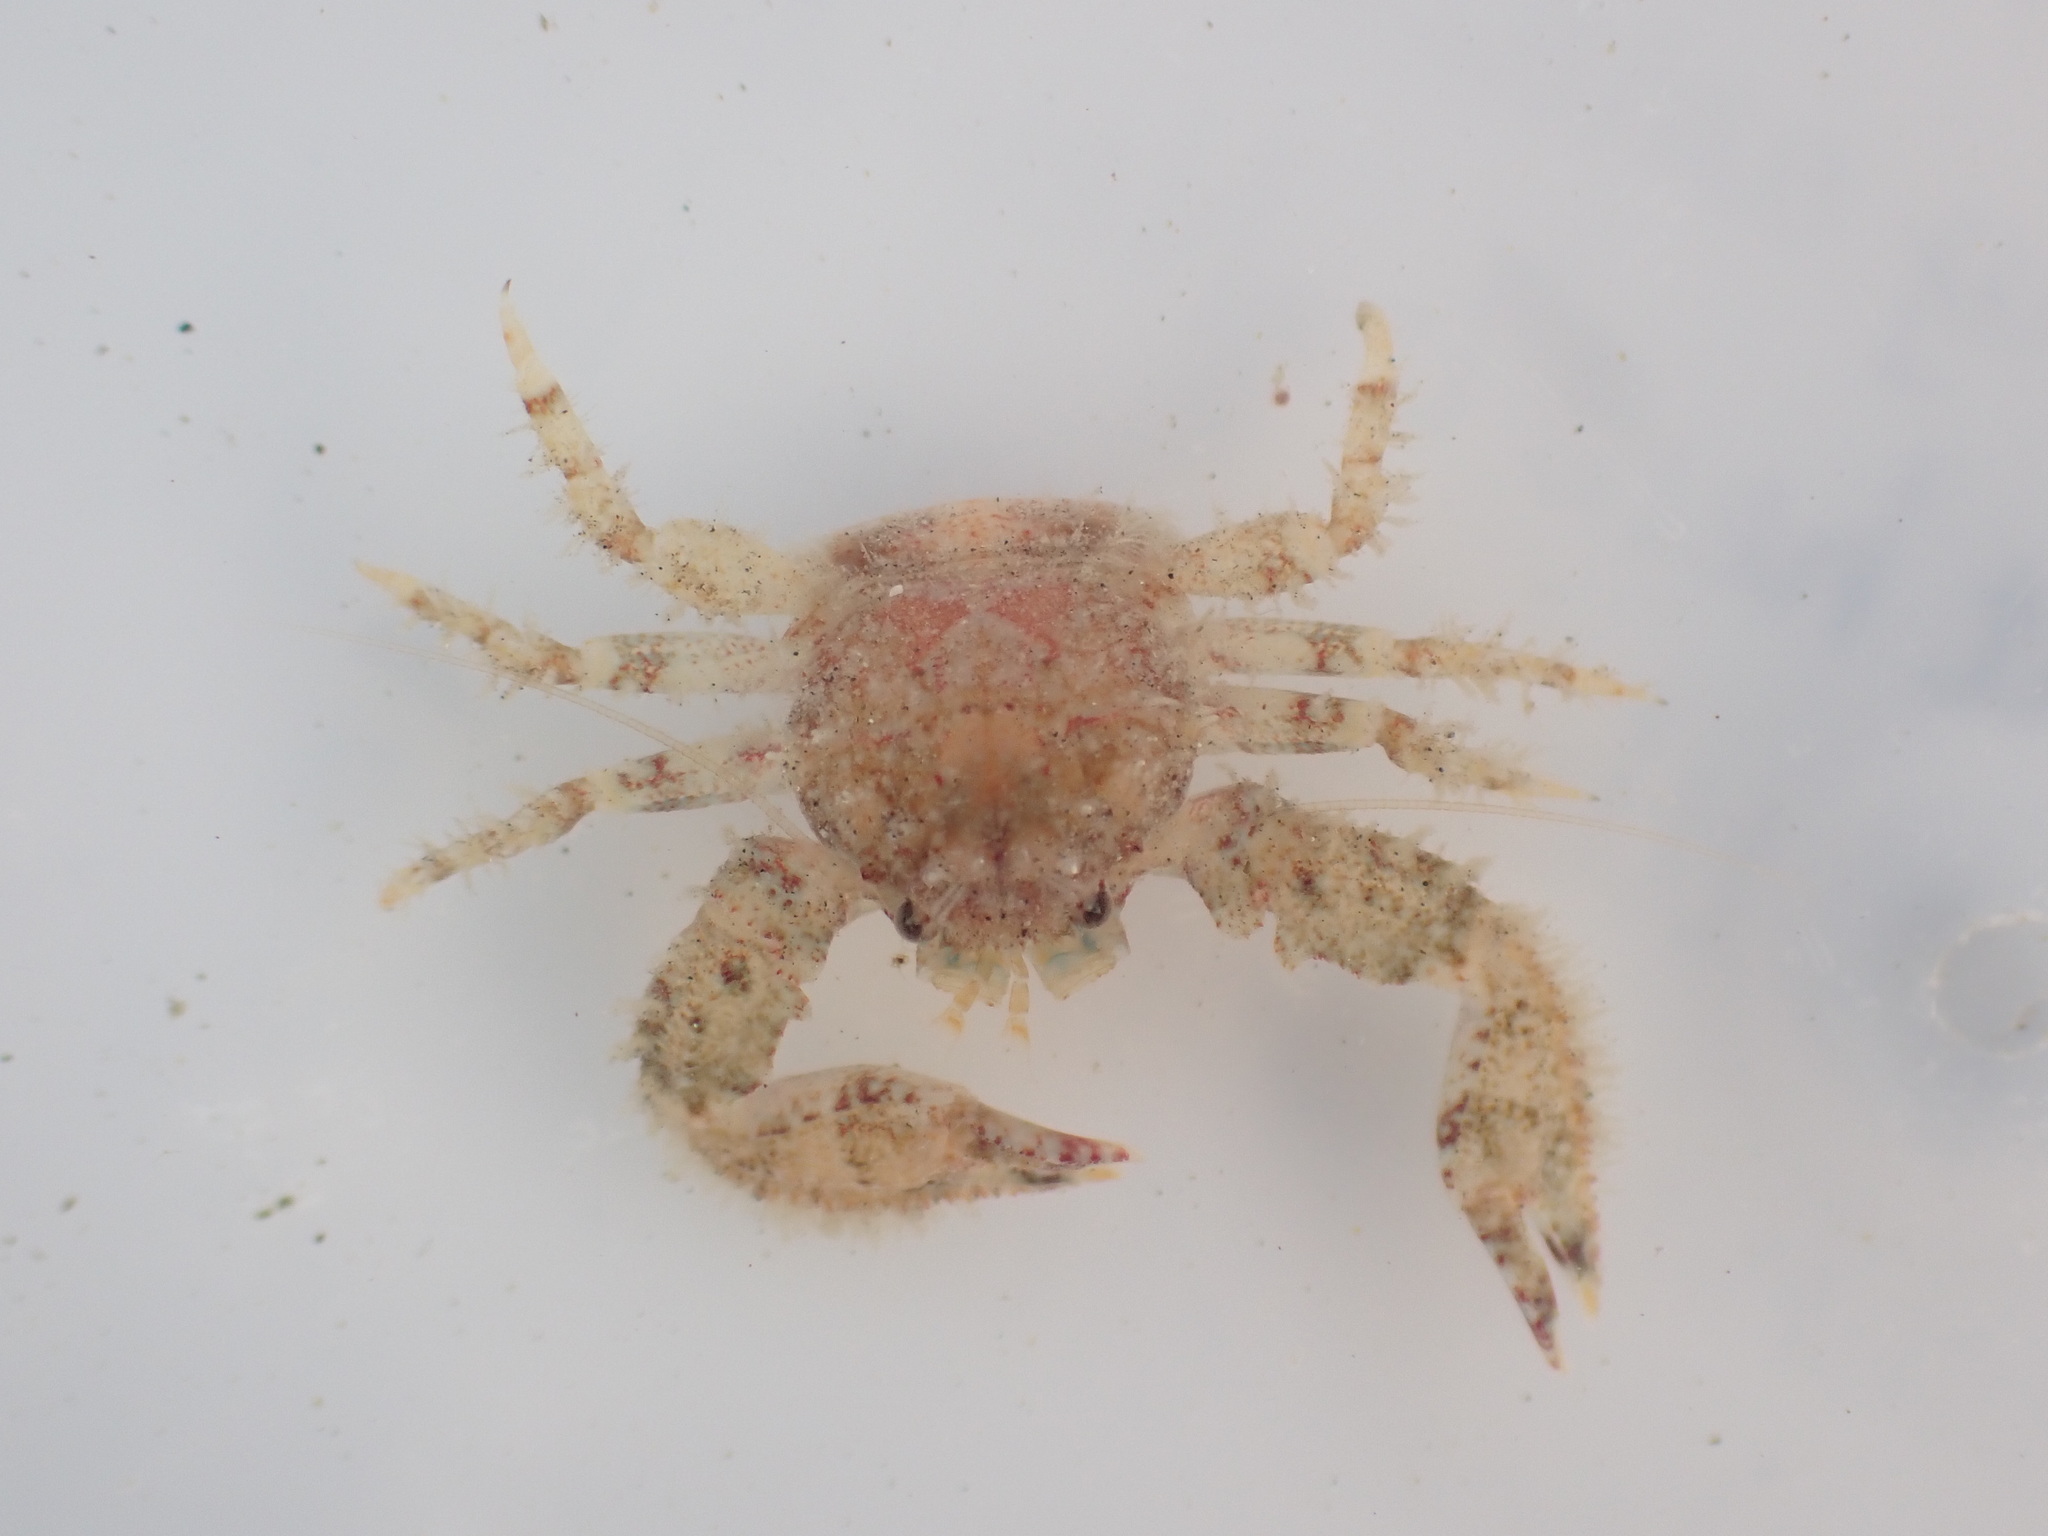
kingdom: Animalia
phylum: Arthropoda
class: Malacostraca
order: Decapoda
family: Porcellanidae
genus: Petrolisthes
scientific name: Petrolisthes novaezelandiae
